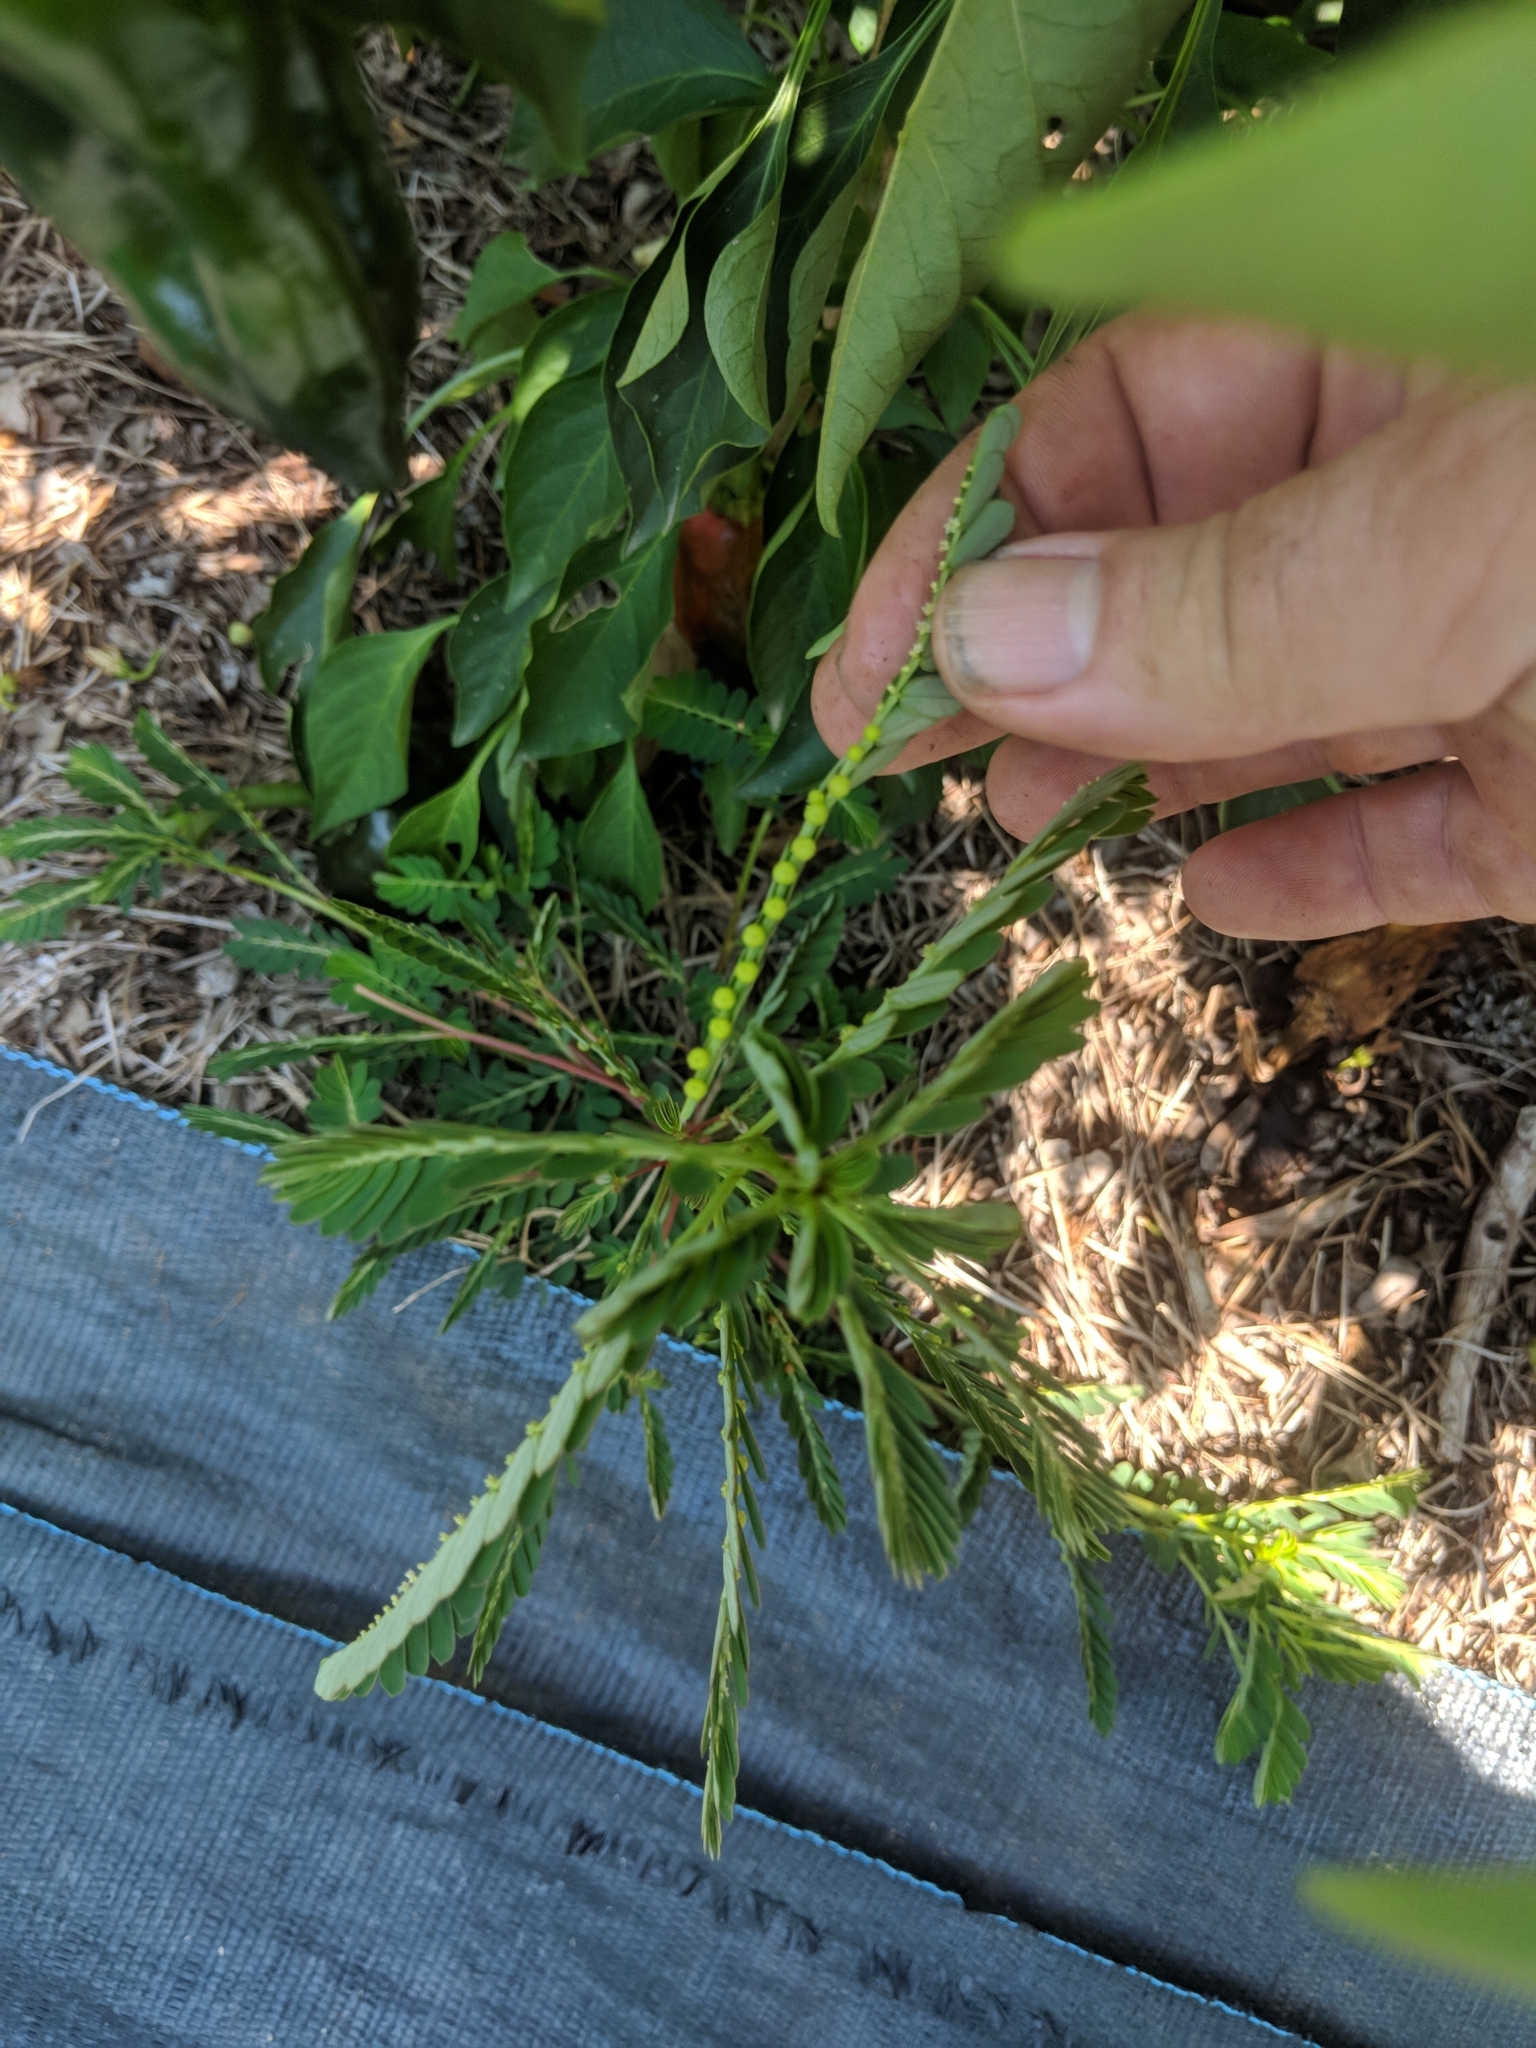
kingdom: Plantae
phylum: Tracheophyta
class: Magnoliopsida
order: Malpighiales
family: Phyllanthaceae
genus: Phyllanthus
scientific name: Phyllanthus urinaria
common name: Chamber bitter
